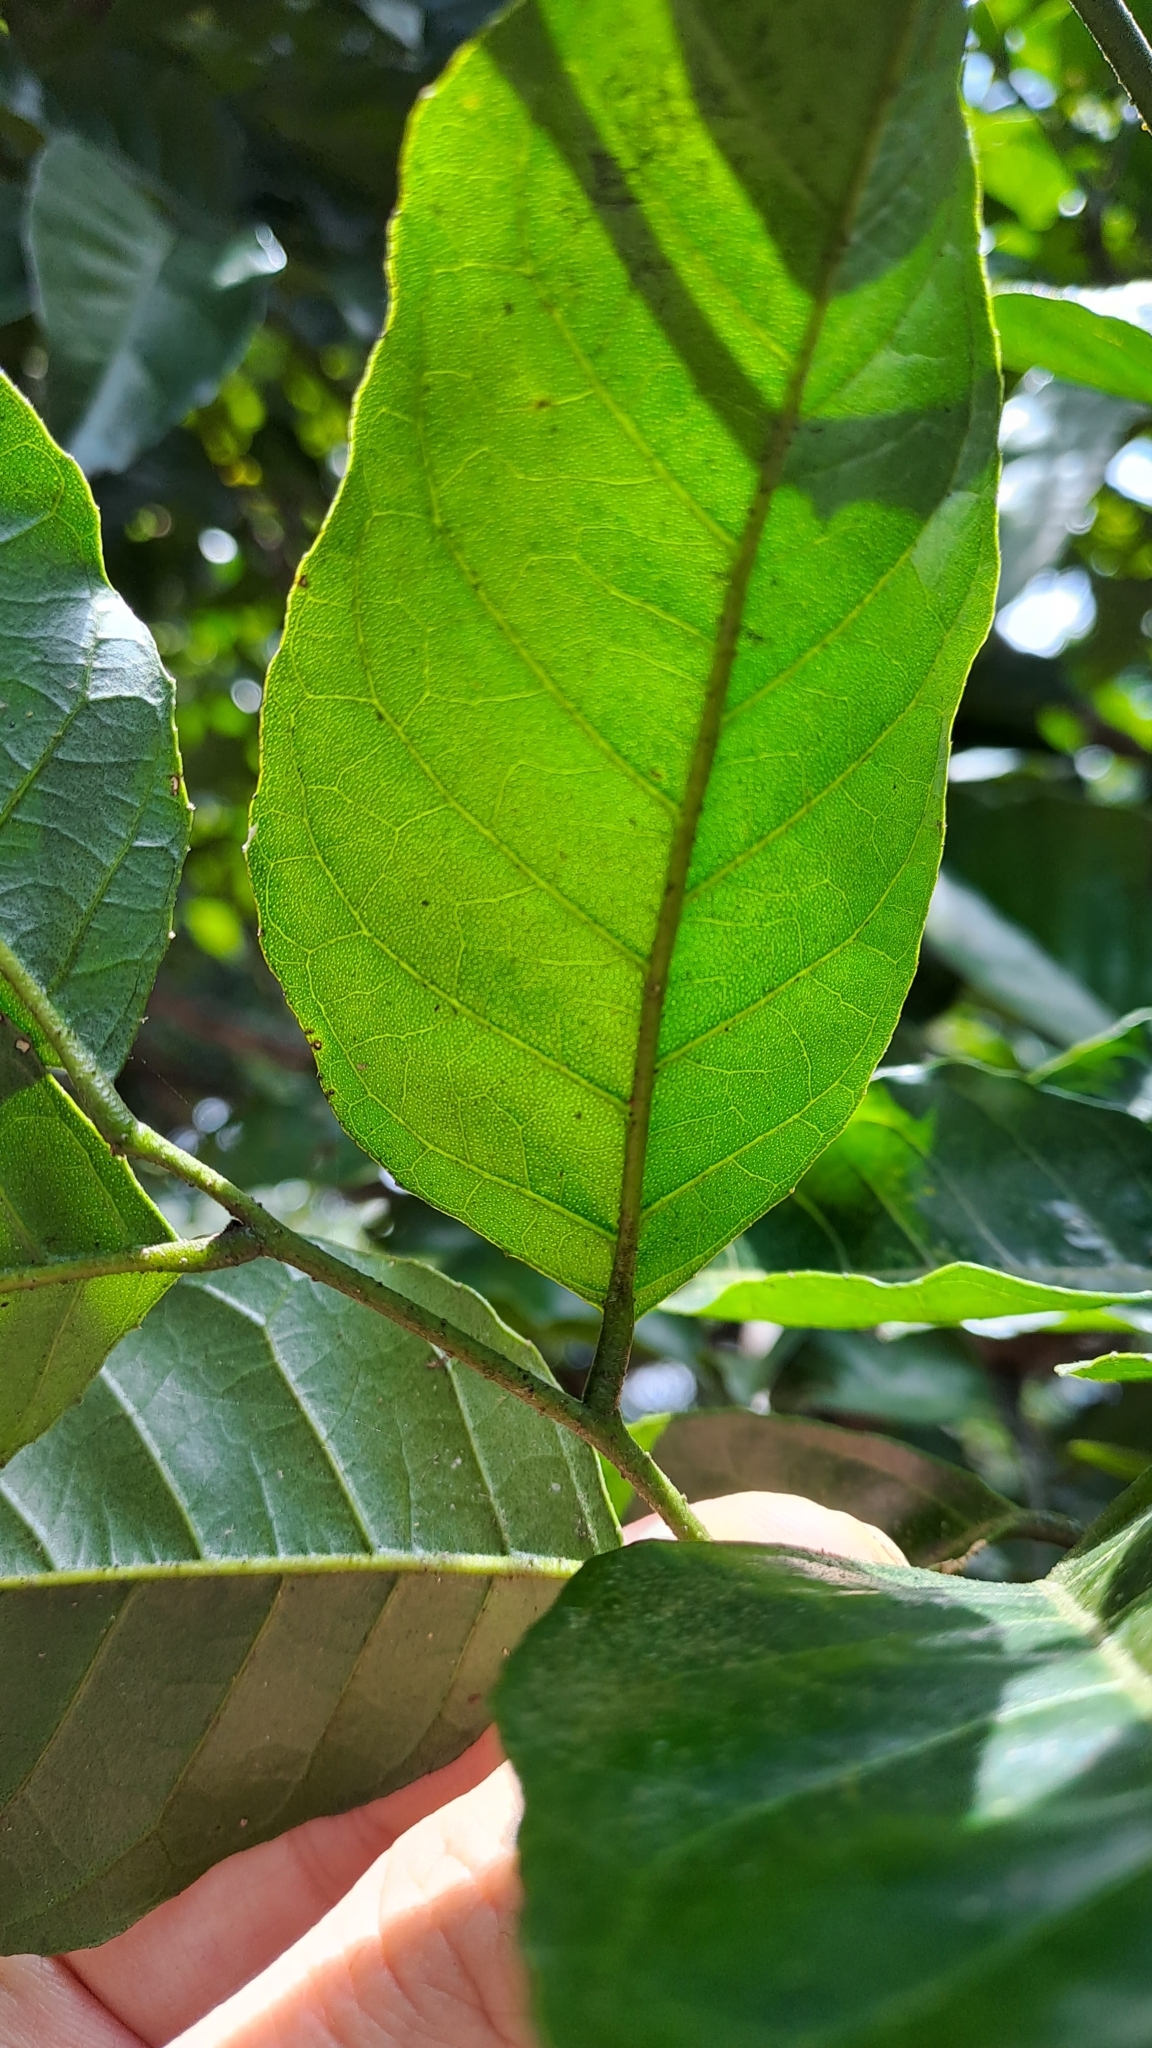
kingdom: Plantae
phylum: Tracheophyta
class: Magnoliopsida
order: Sapindales
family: Rutaceae
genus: Clausena
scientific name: Clausena lansium
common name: Wampi
